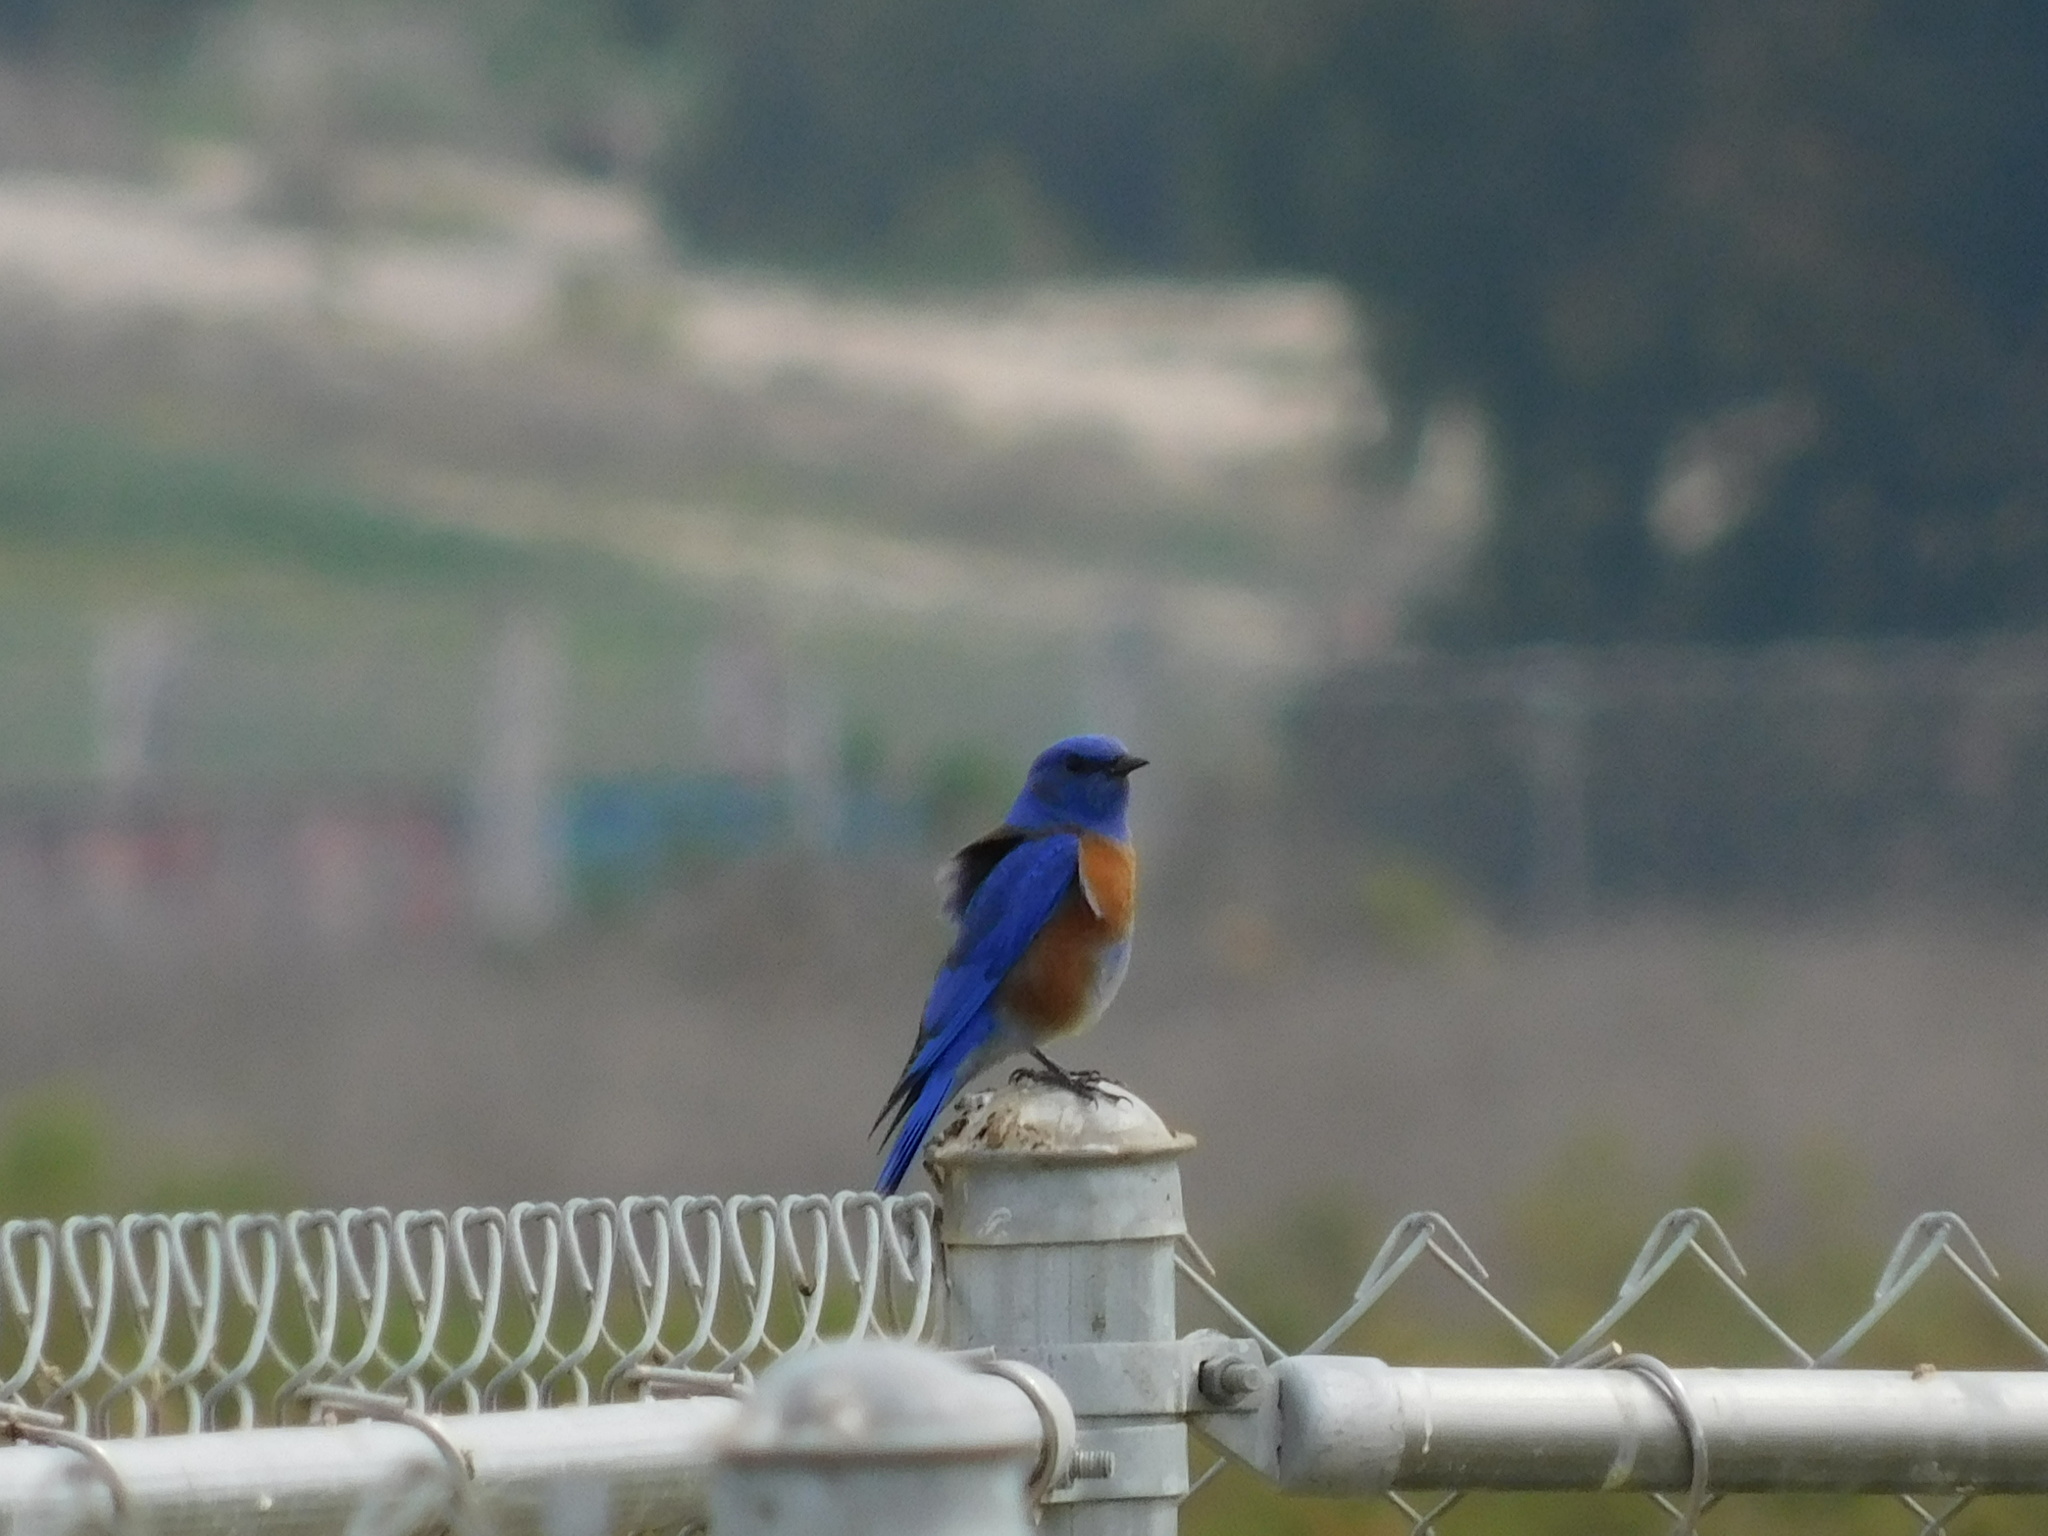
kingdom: Animalia
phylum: Chordata
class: Aves
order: Passeriformes
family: Turdidae
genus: Sialia
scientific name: Sialia mexicana
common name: Western bluebird
